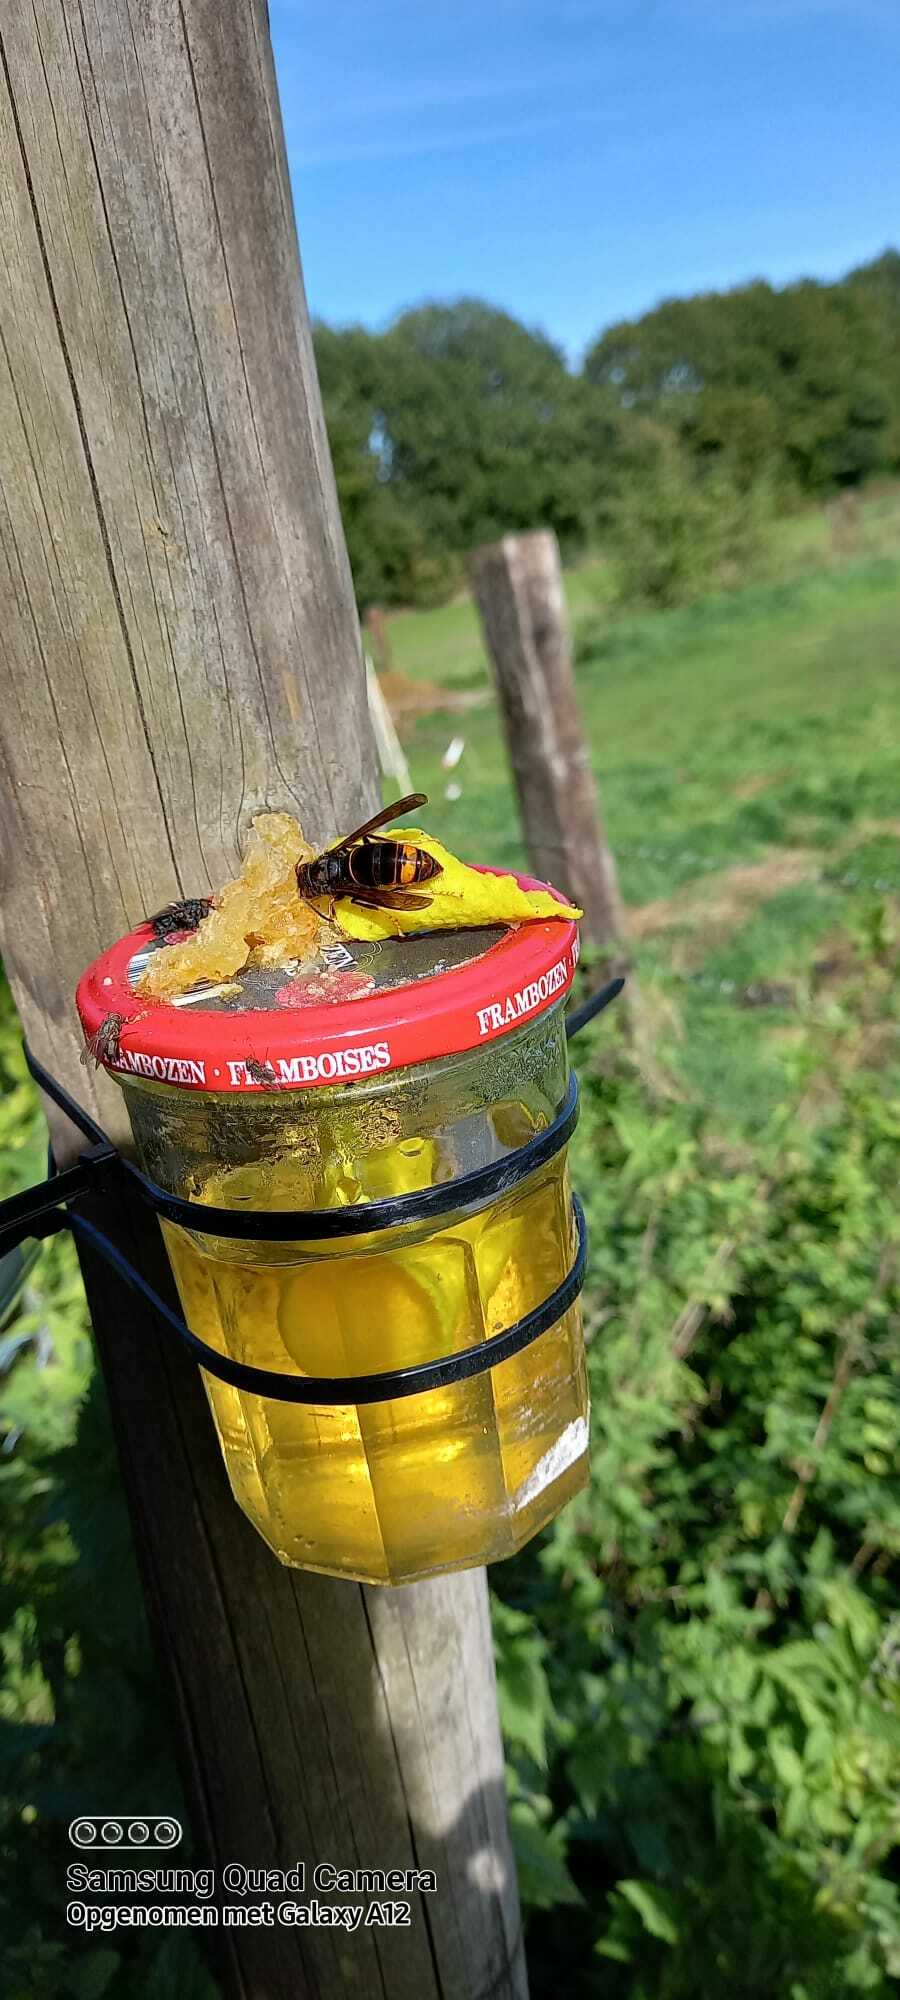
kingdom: Animalia
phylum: Arthropoda
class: Insecta
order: Hymenoptera
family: Vespidae
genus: Vespa
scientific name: Vespa velutina
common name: Asian hornet
